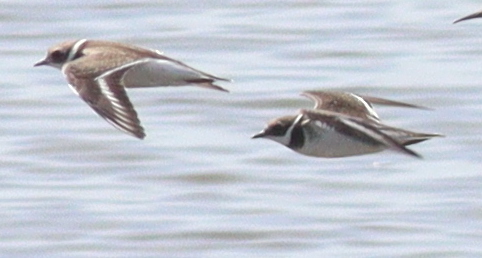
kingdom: Animalia
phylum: Chordata
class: Aves
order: Charadriiformes
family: Charadriidae
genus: Charadrius
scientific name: Charadrius hiaticula
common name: Common ringed plover
